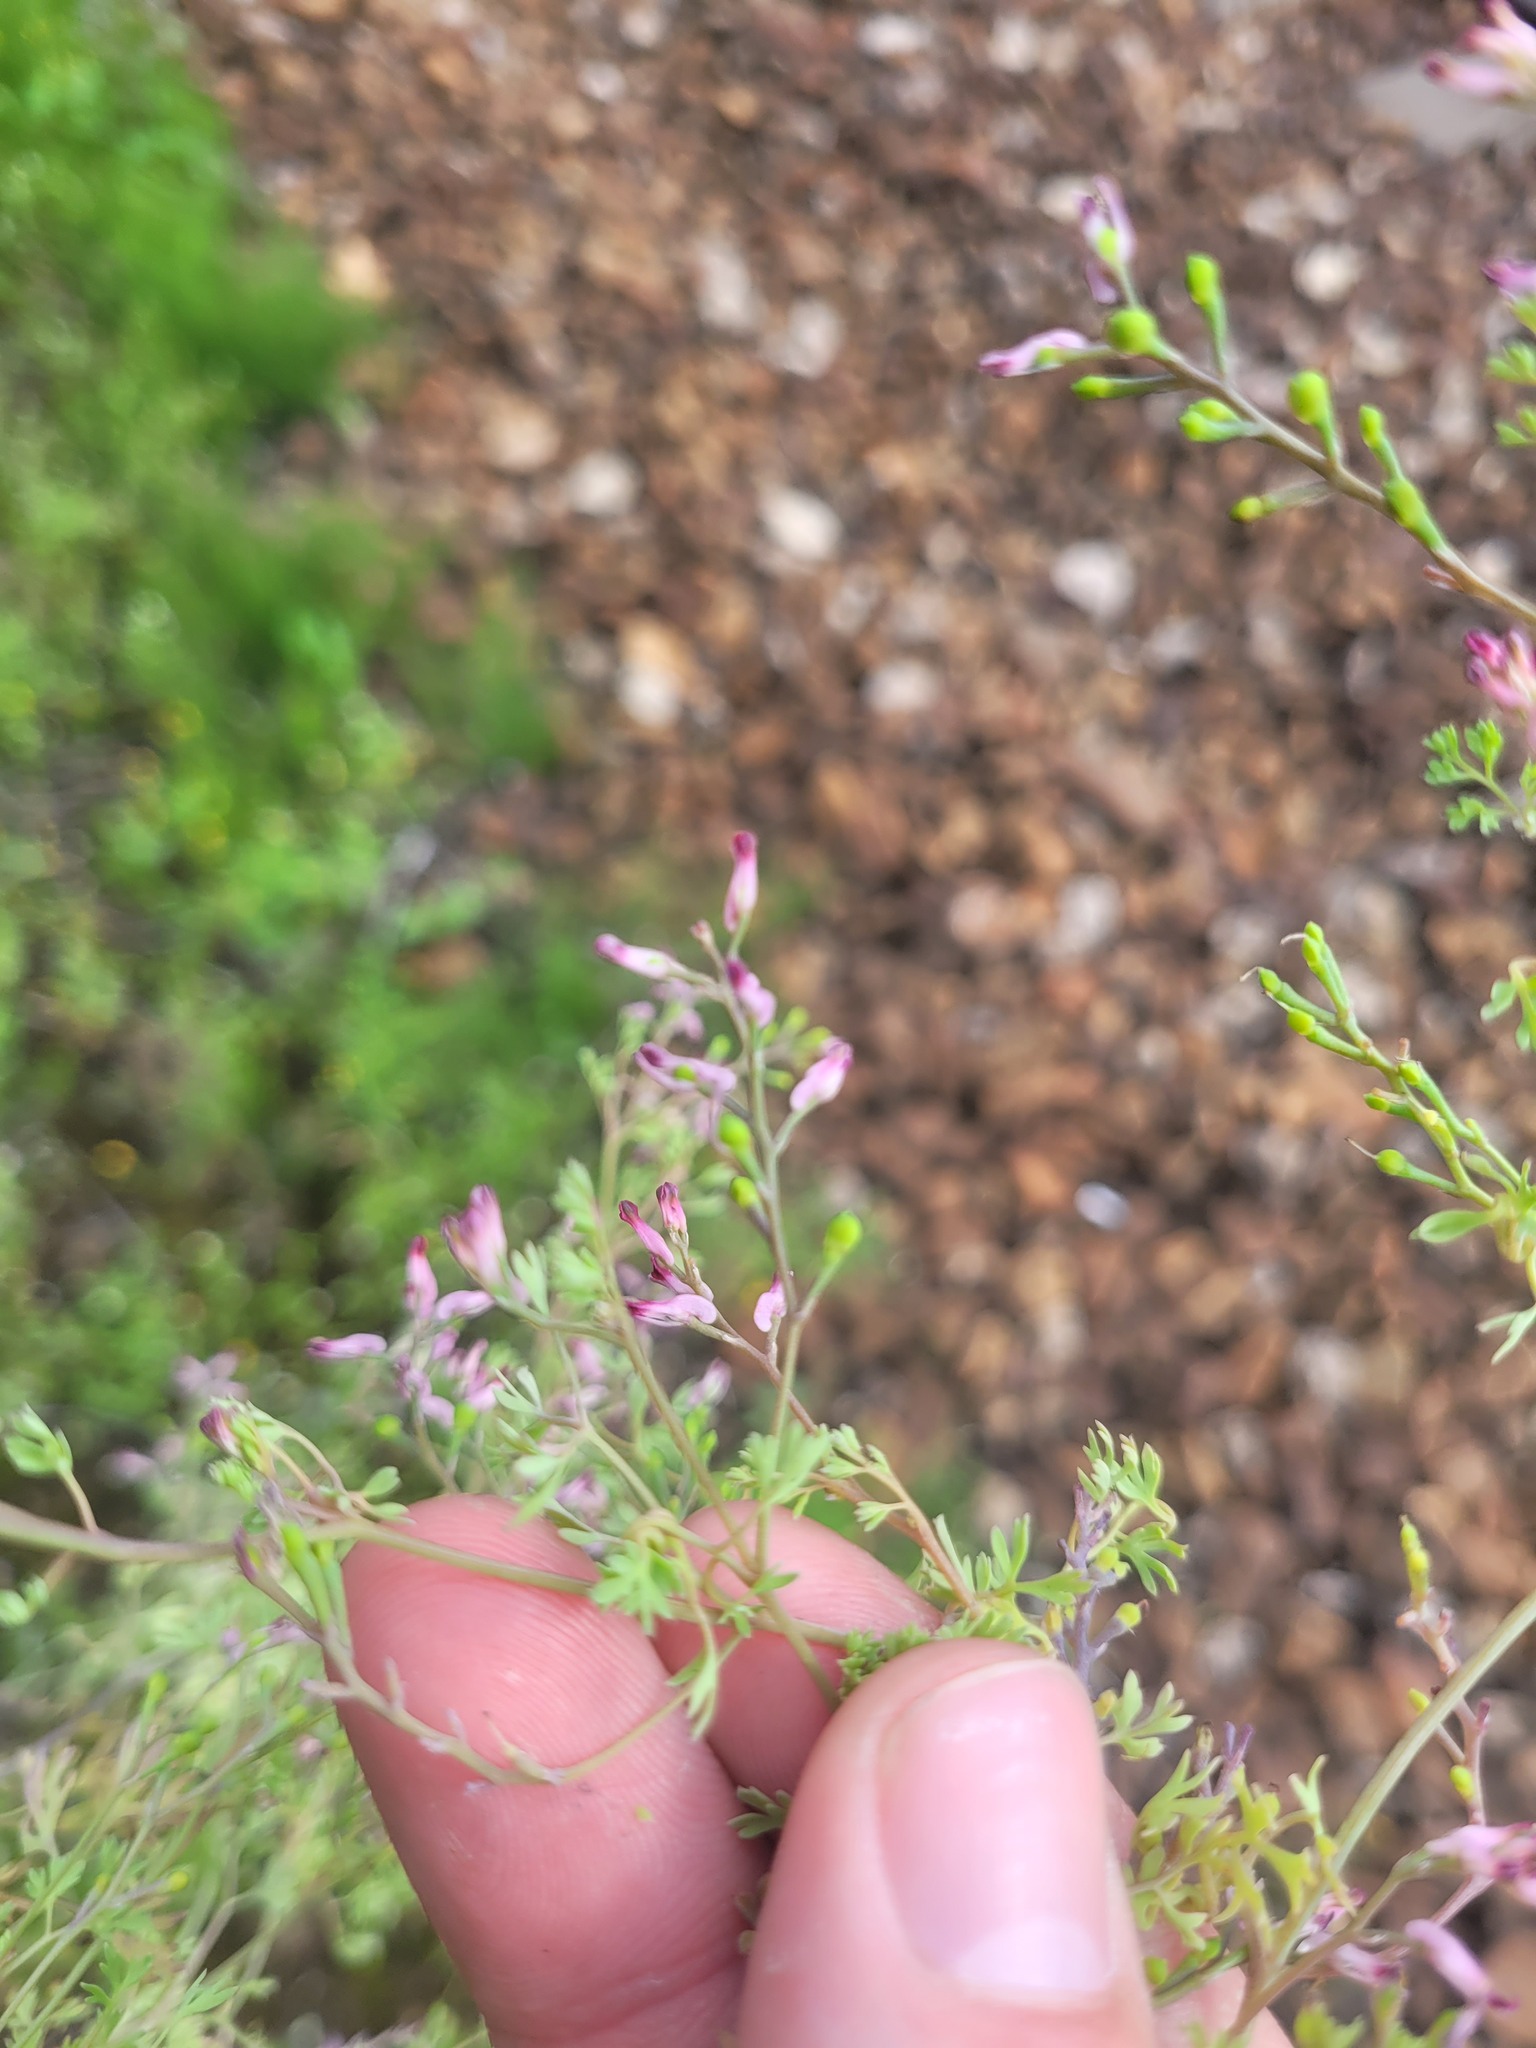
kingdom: Plantae
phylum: Tracheophyta
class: Magnoliopsida
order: Ranunculales
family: Papaveraceae
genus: Fumaria
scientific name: Fumaria schleicheri
